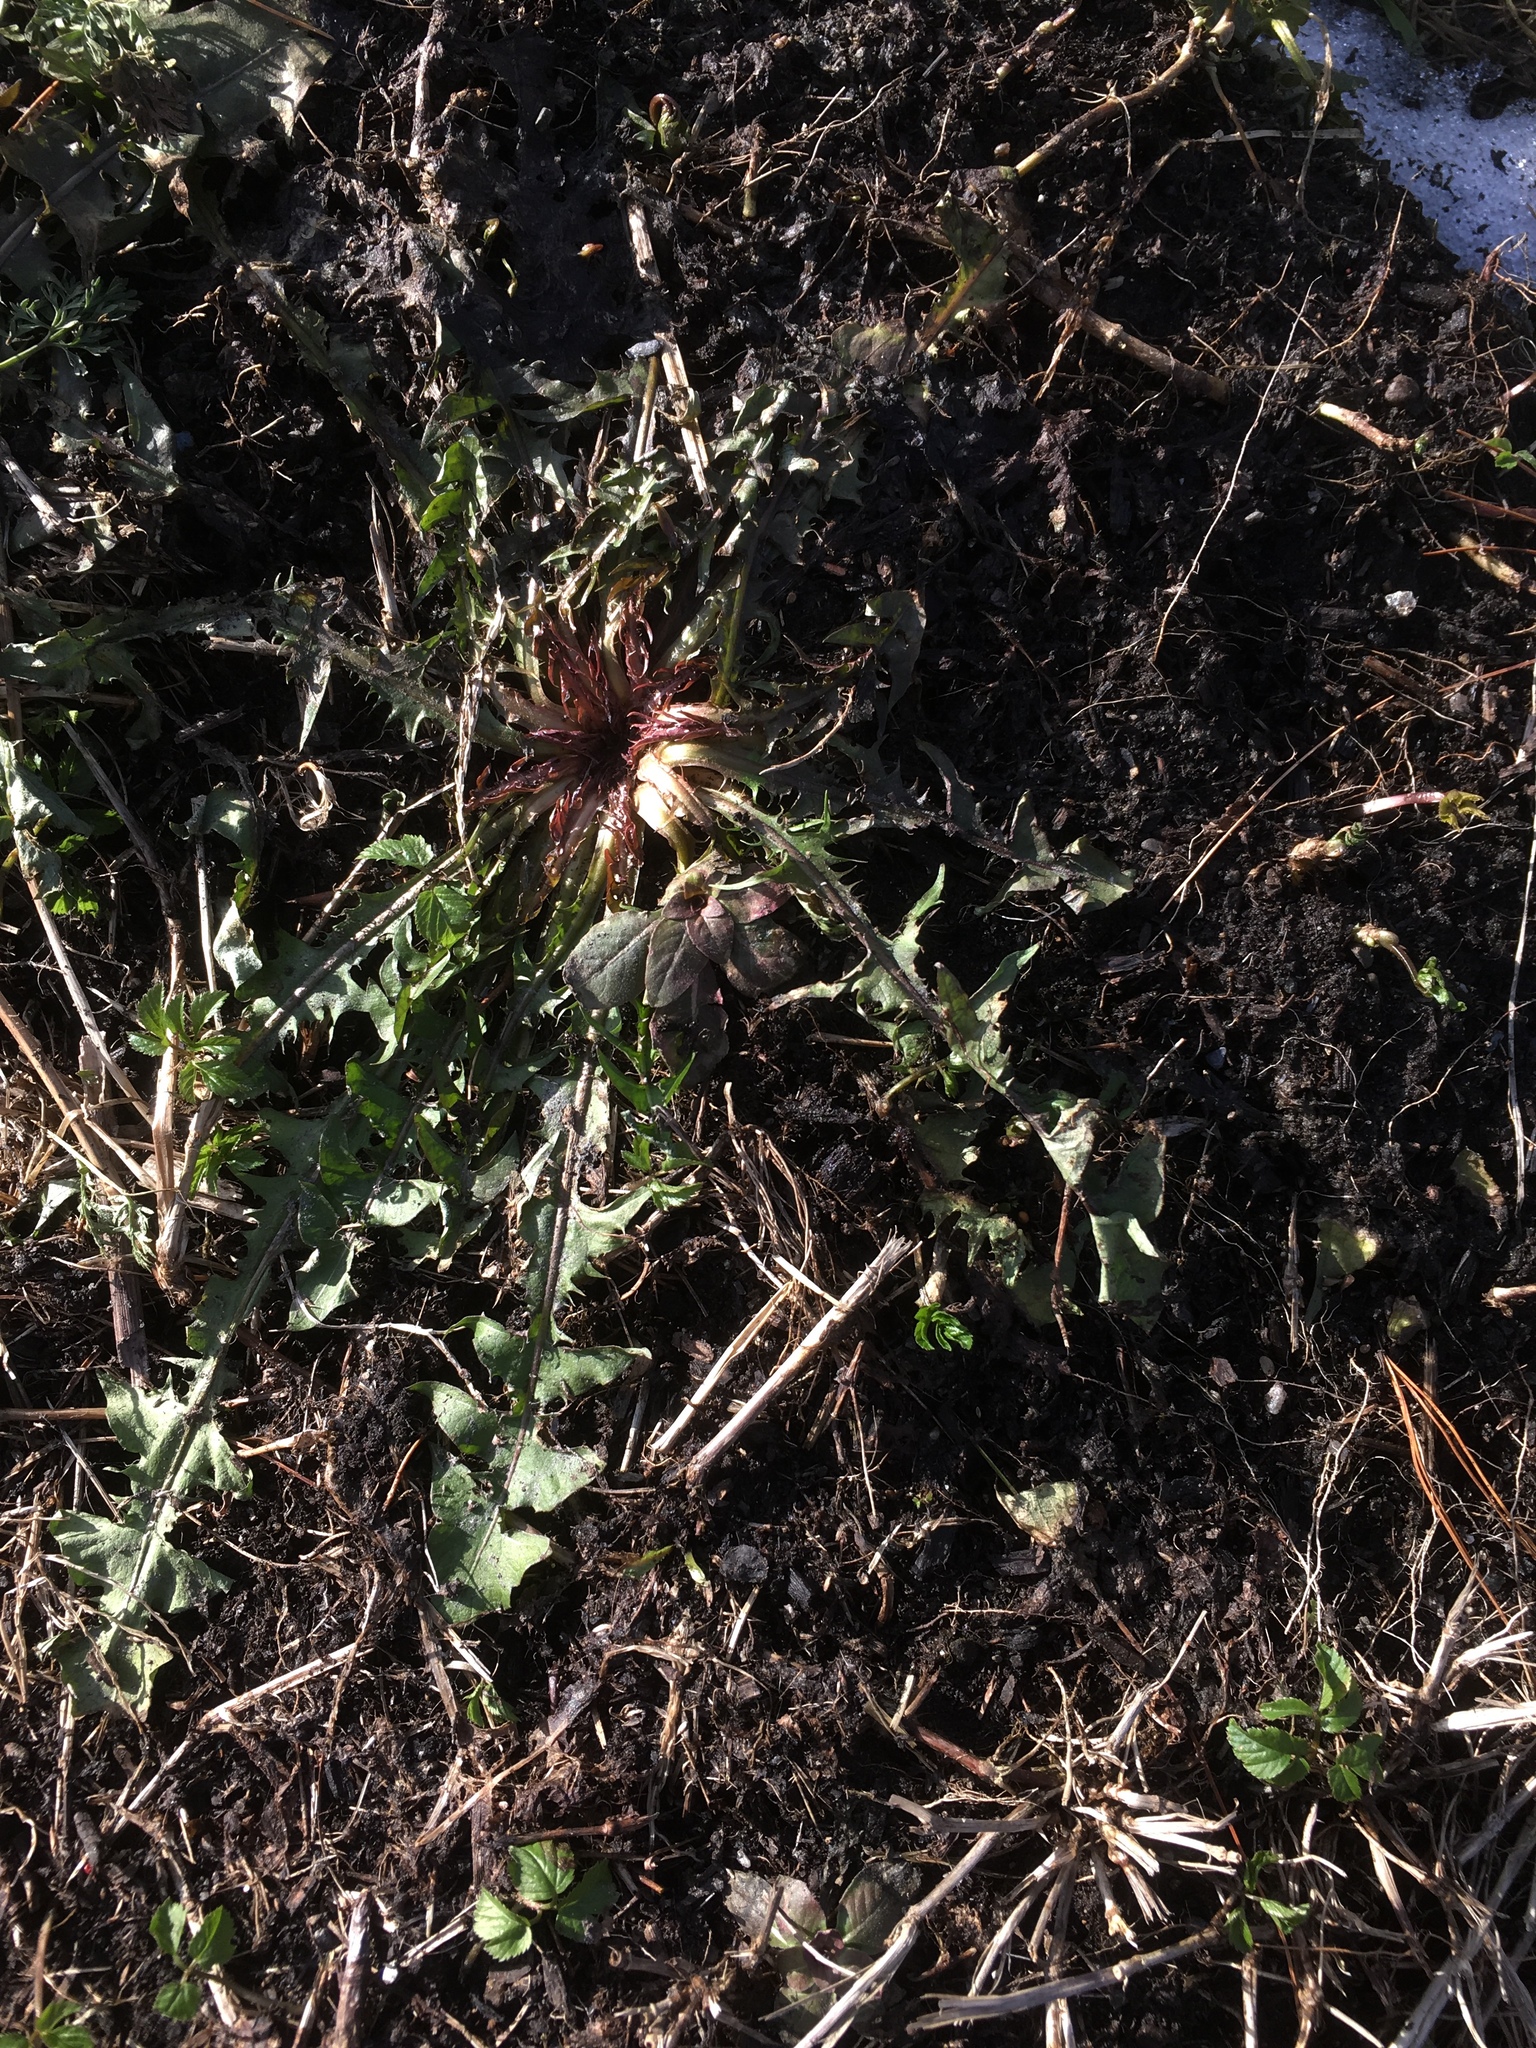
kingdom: Plantae
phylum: Tracheophyta
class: Magnoliopsida
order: Asterales
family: Asteraceae
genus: Taraxacum
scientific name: Taraxacum officinale
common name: Common dandelion
